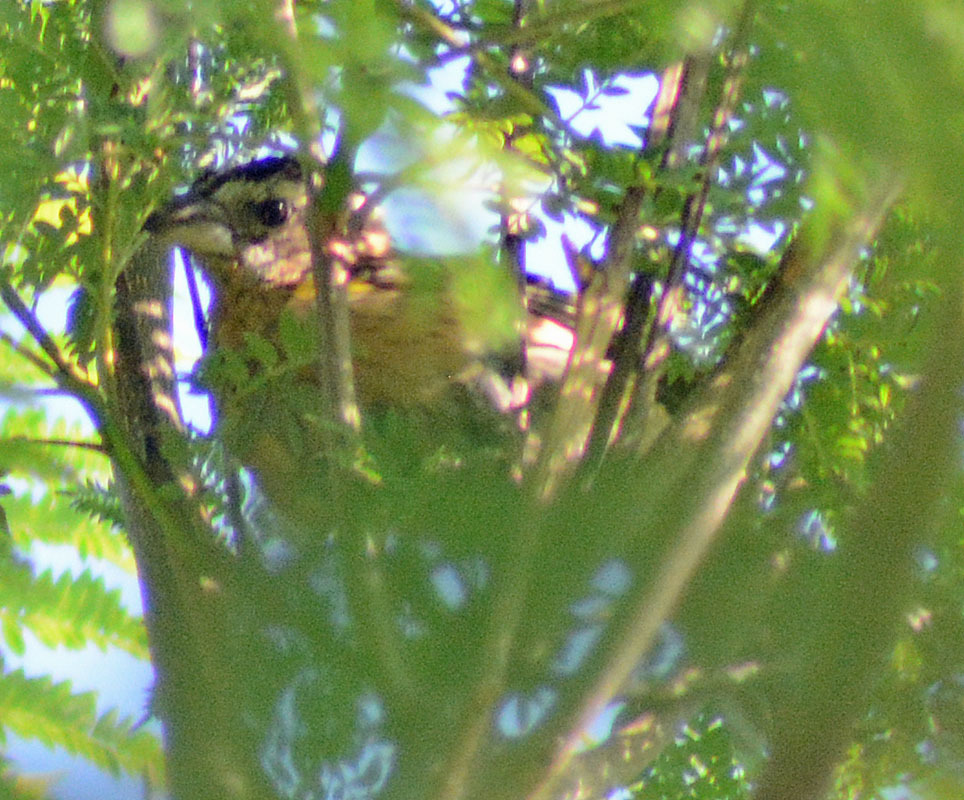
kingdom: Animalia
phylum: Chordata
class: Aves
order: Passeriformes
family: Cardinalidae
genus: Pheucticus
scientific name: Pheucticus melanocephalus
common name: Black-headed grosbeak
